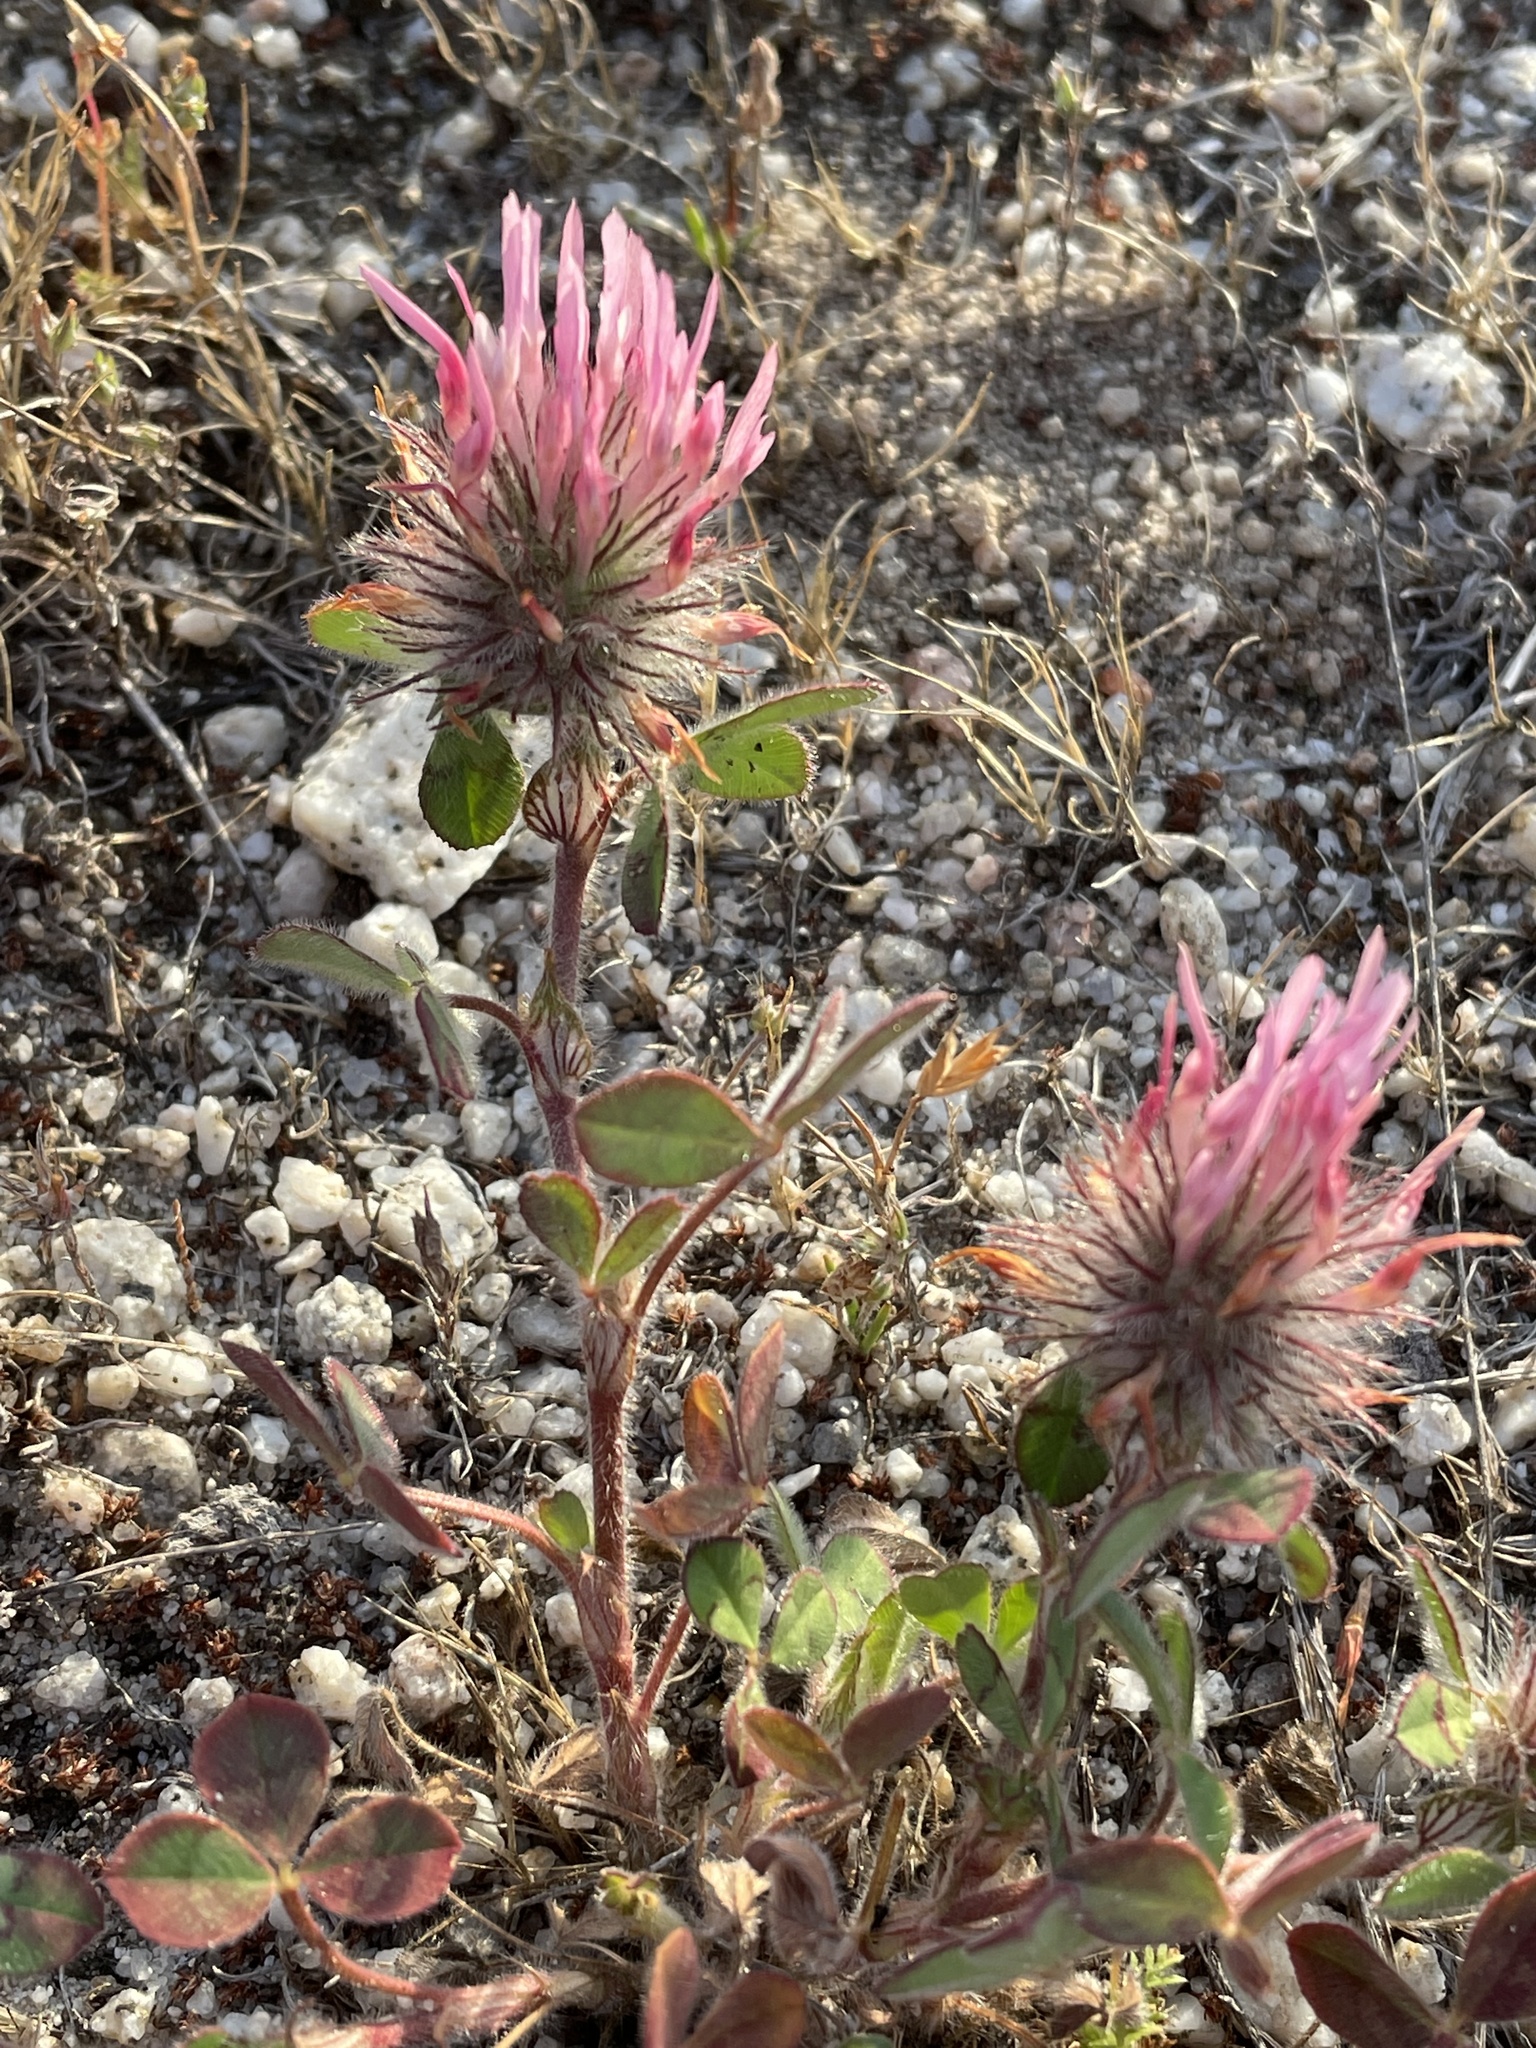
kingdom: Plantae
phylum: Tracheophyta
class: Magnoliopsida
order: Fabales
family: Fabaceae
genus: Trifolium
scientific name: Trifolium hirtum
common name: Rose clover
